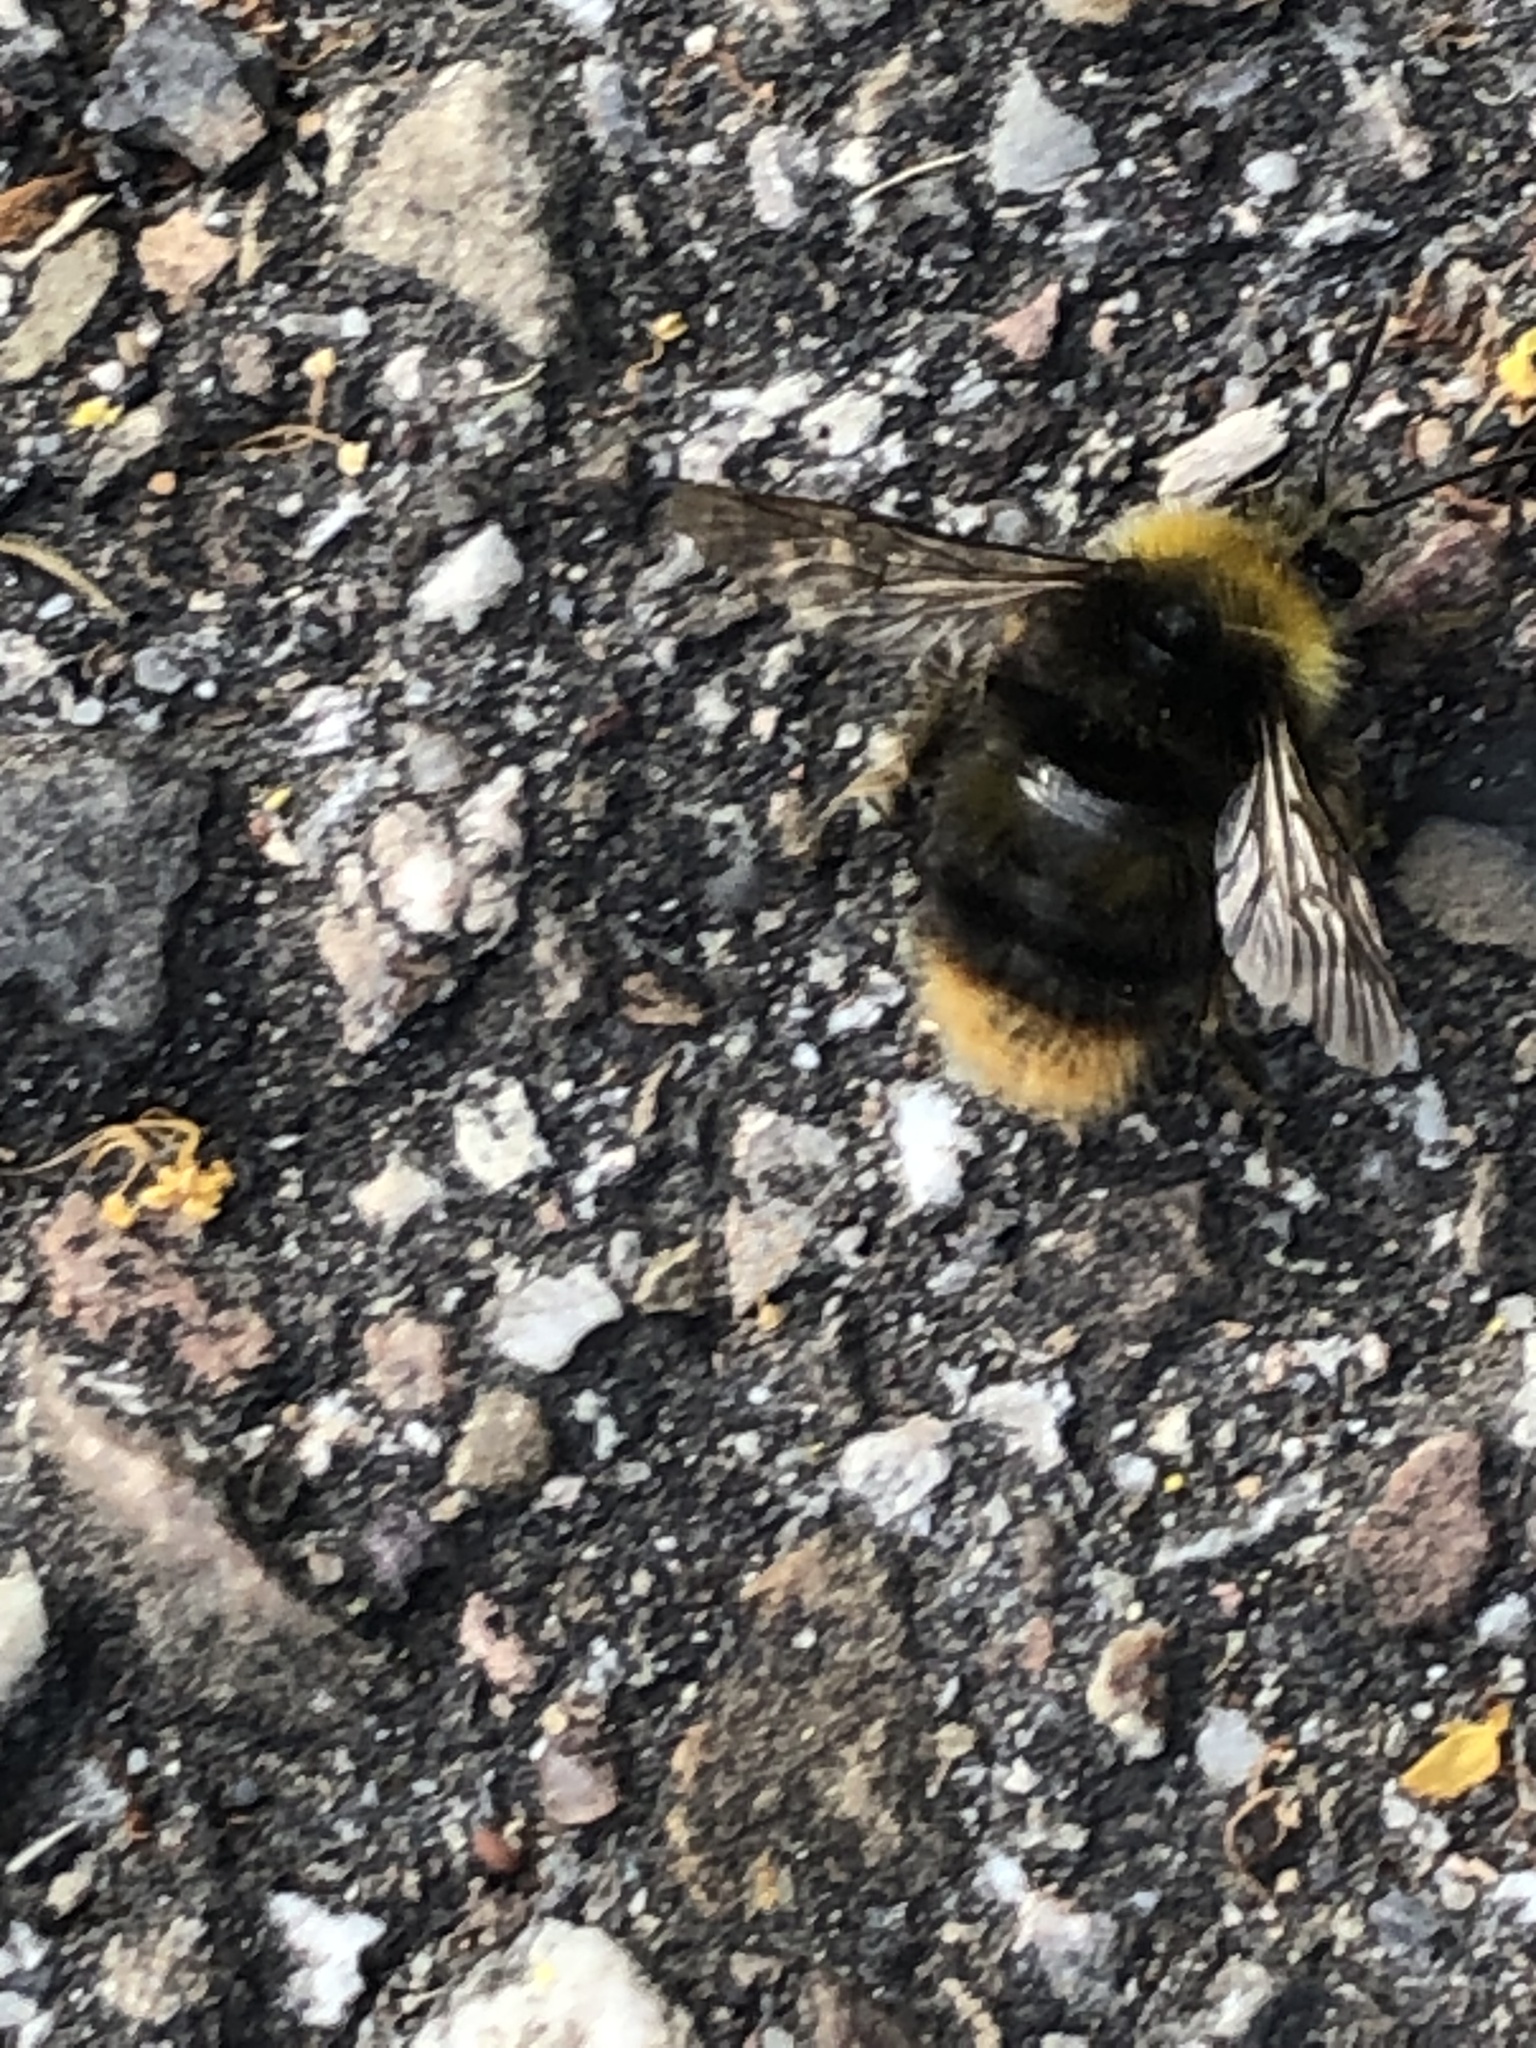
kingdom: Animalia
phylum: Arthropoda
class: Insecta
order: Hymenoptera
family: Apidae
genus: Bombus
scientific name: Bombus pratorum
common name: Early humble-bee
